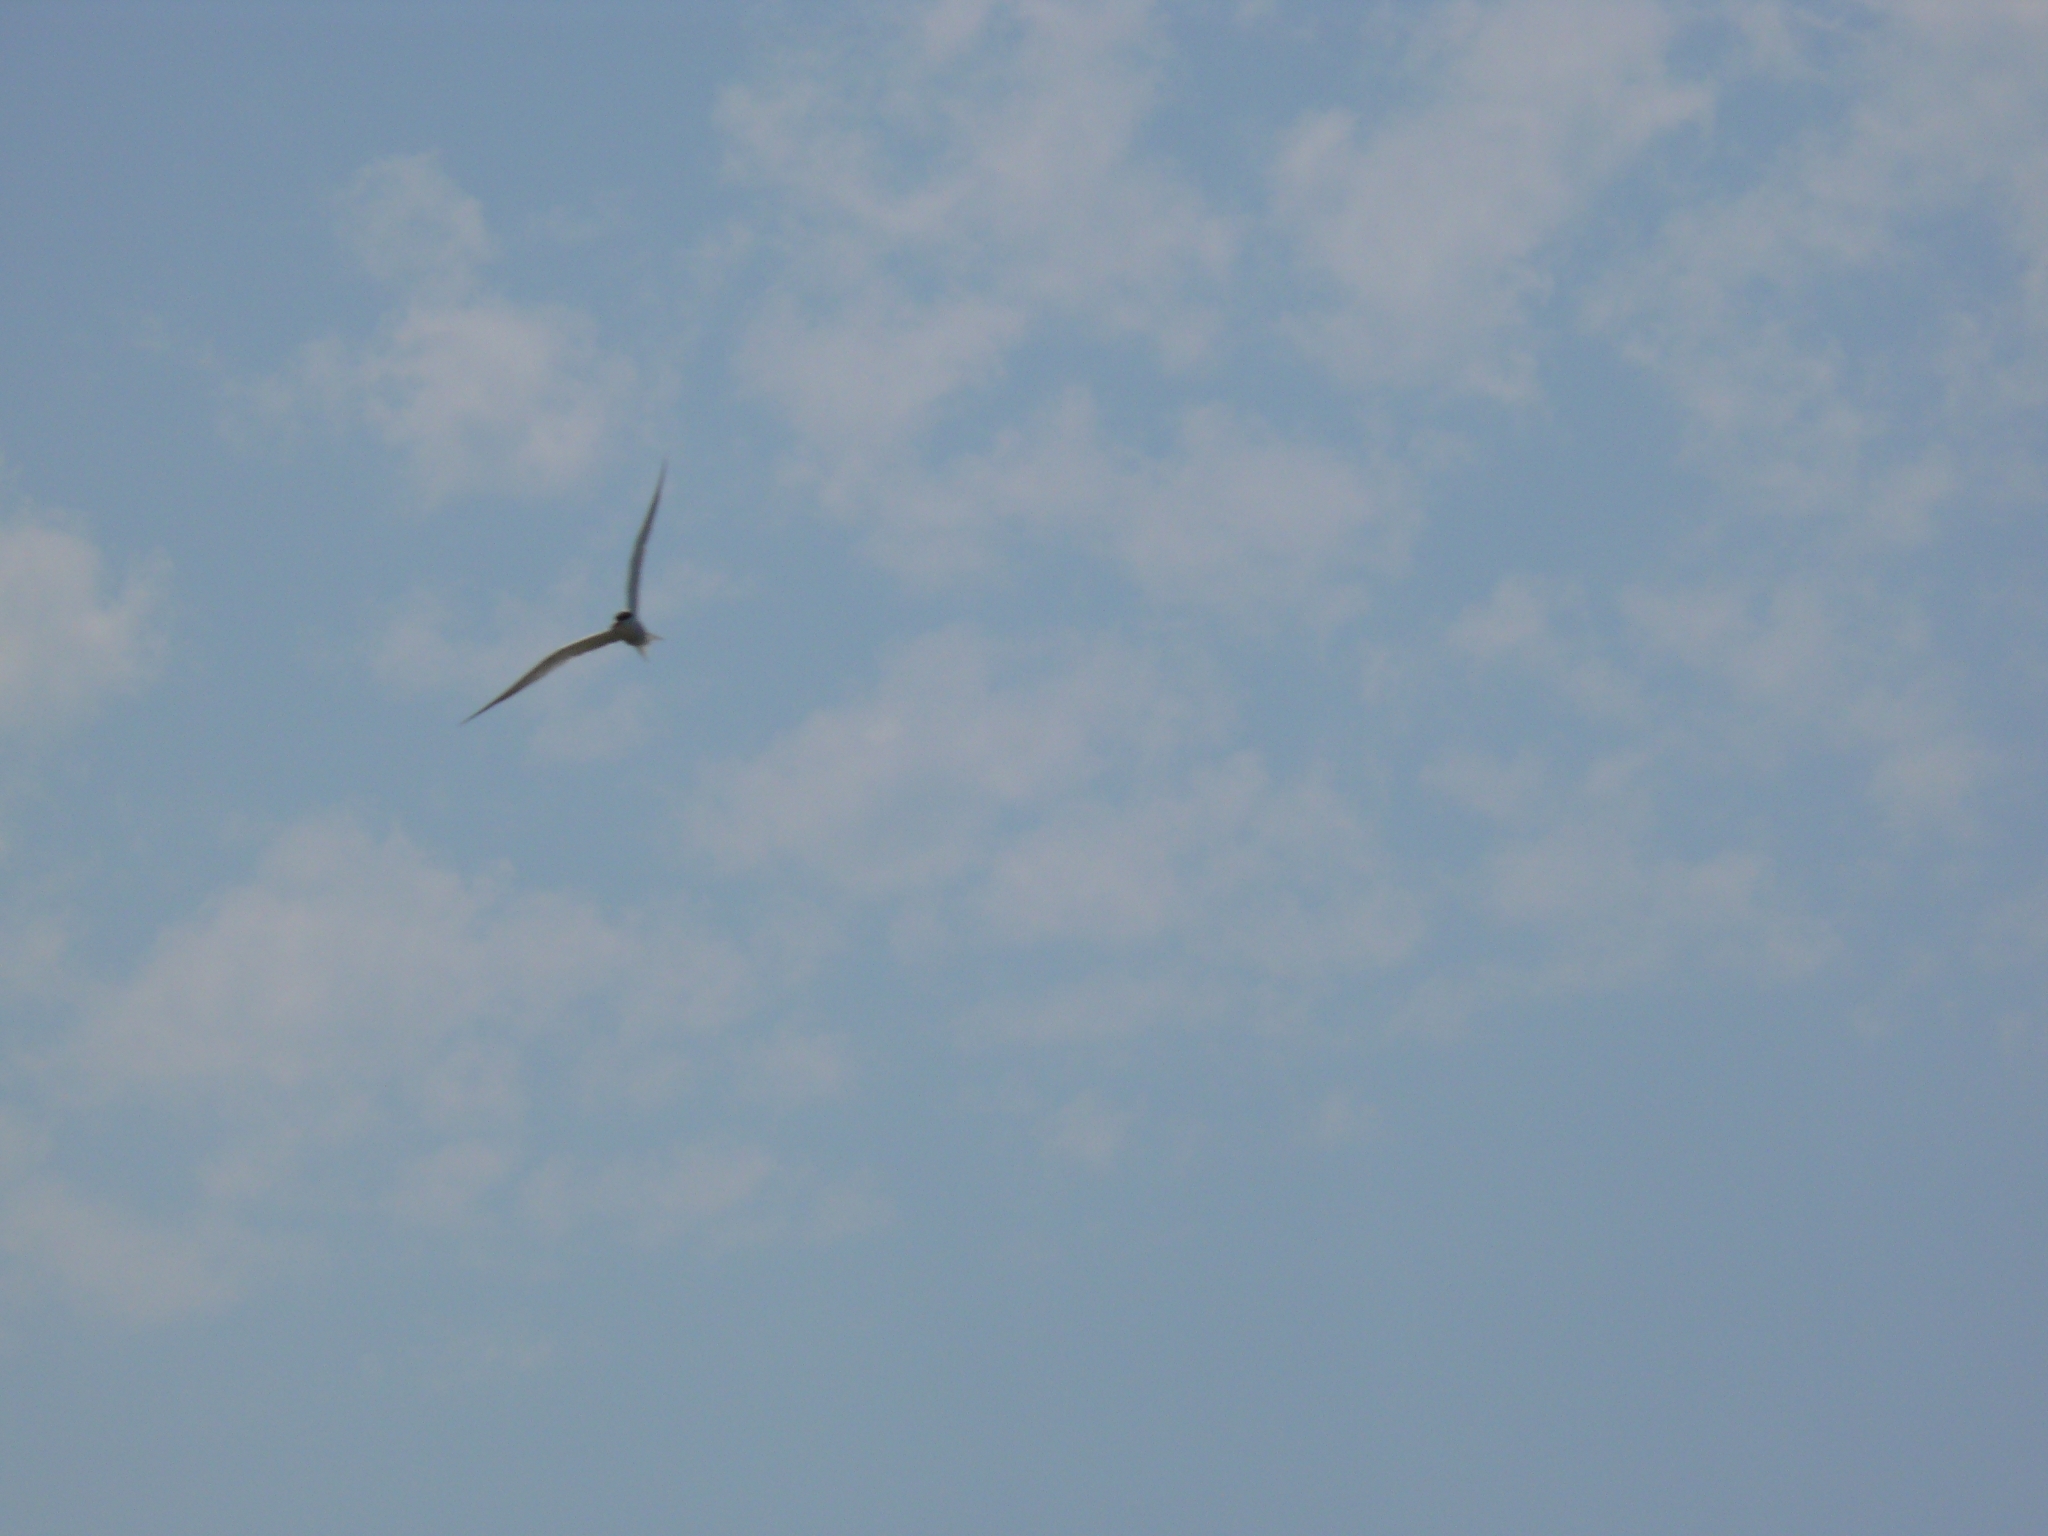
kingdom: Animalia
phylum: Chordata
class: Aves
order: Charadriiformes
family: Laridae
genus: Chlidonias
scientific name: Chlidonias hybrida
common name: Whiskered tern
